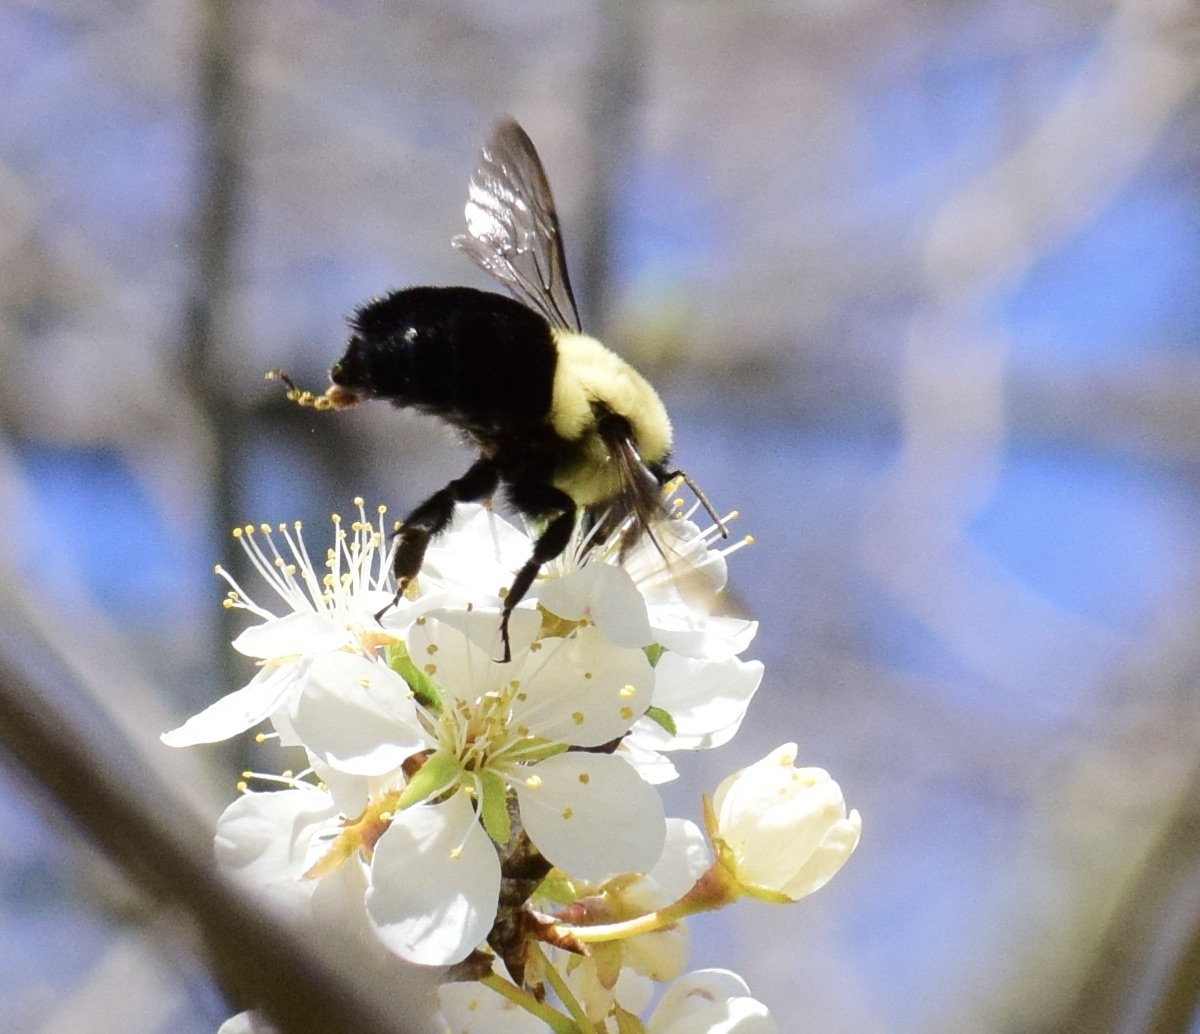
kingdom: Animalia
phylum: Arthropoda
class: Insecta
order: Hymenoptera
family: Apidae
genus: Bombus
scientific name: Bombus impatiens
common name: Common eastern bumble bee
